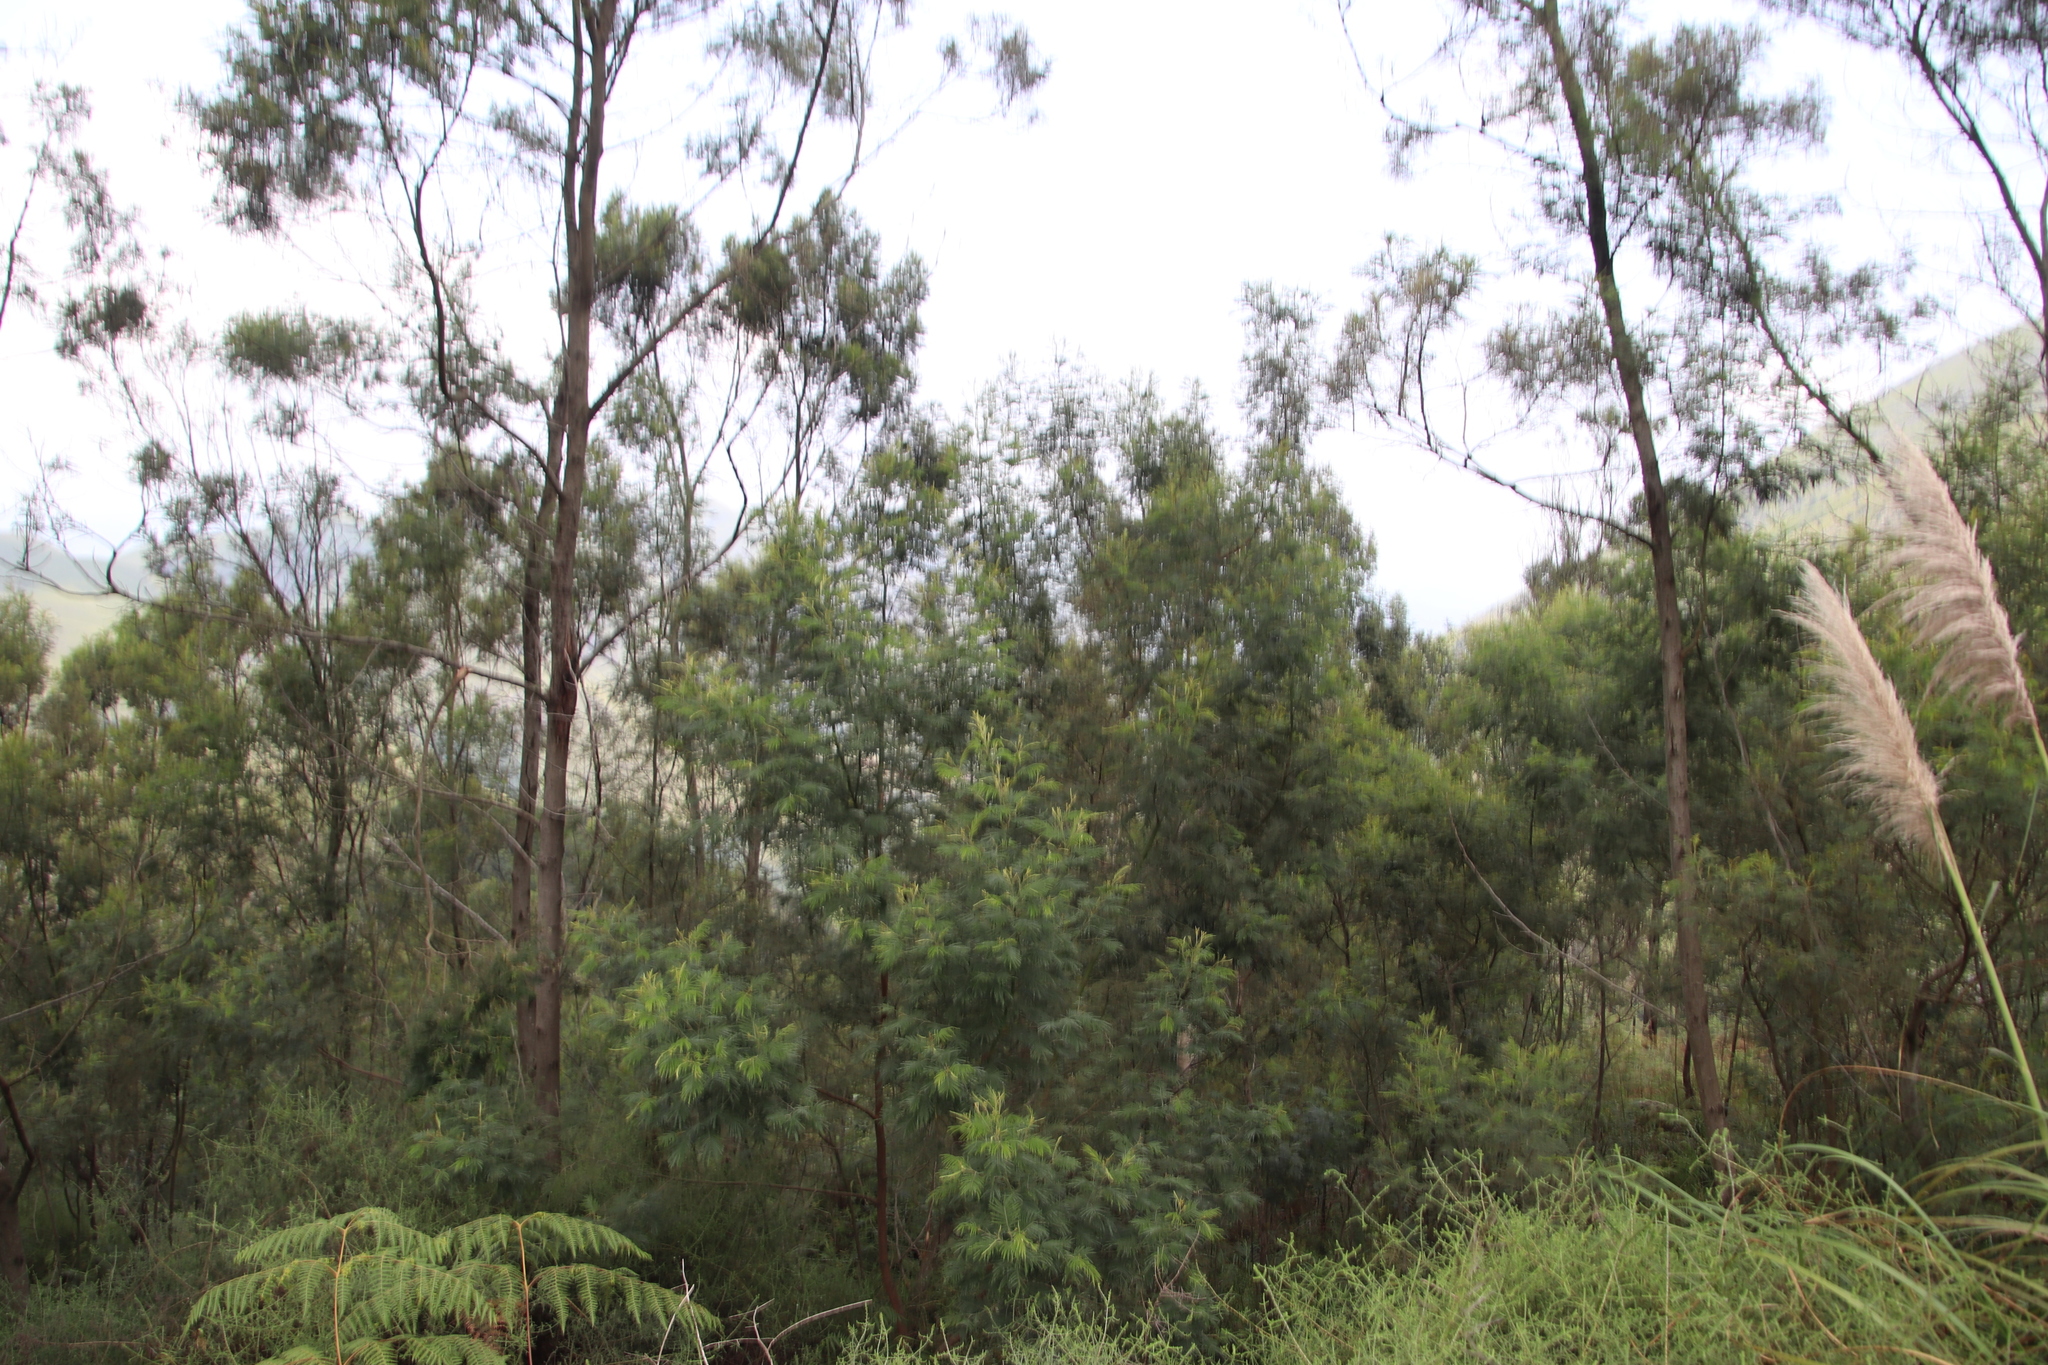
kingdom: Plantae
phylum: Tracheophyta
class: Magnoliopsida
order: Fabales
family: Fabaceae
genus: Acacia
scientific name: Acacia mearnsii
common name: Black wattle
